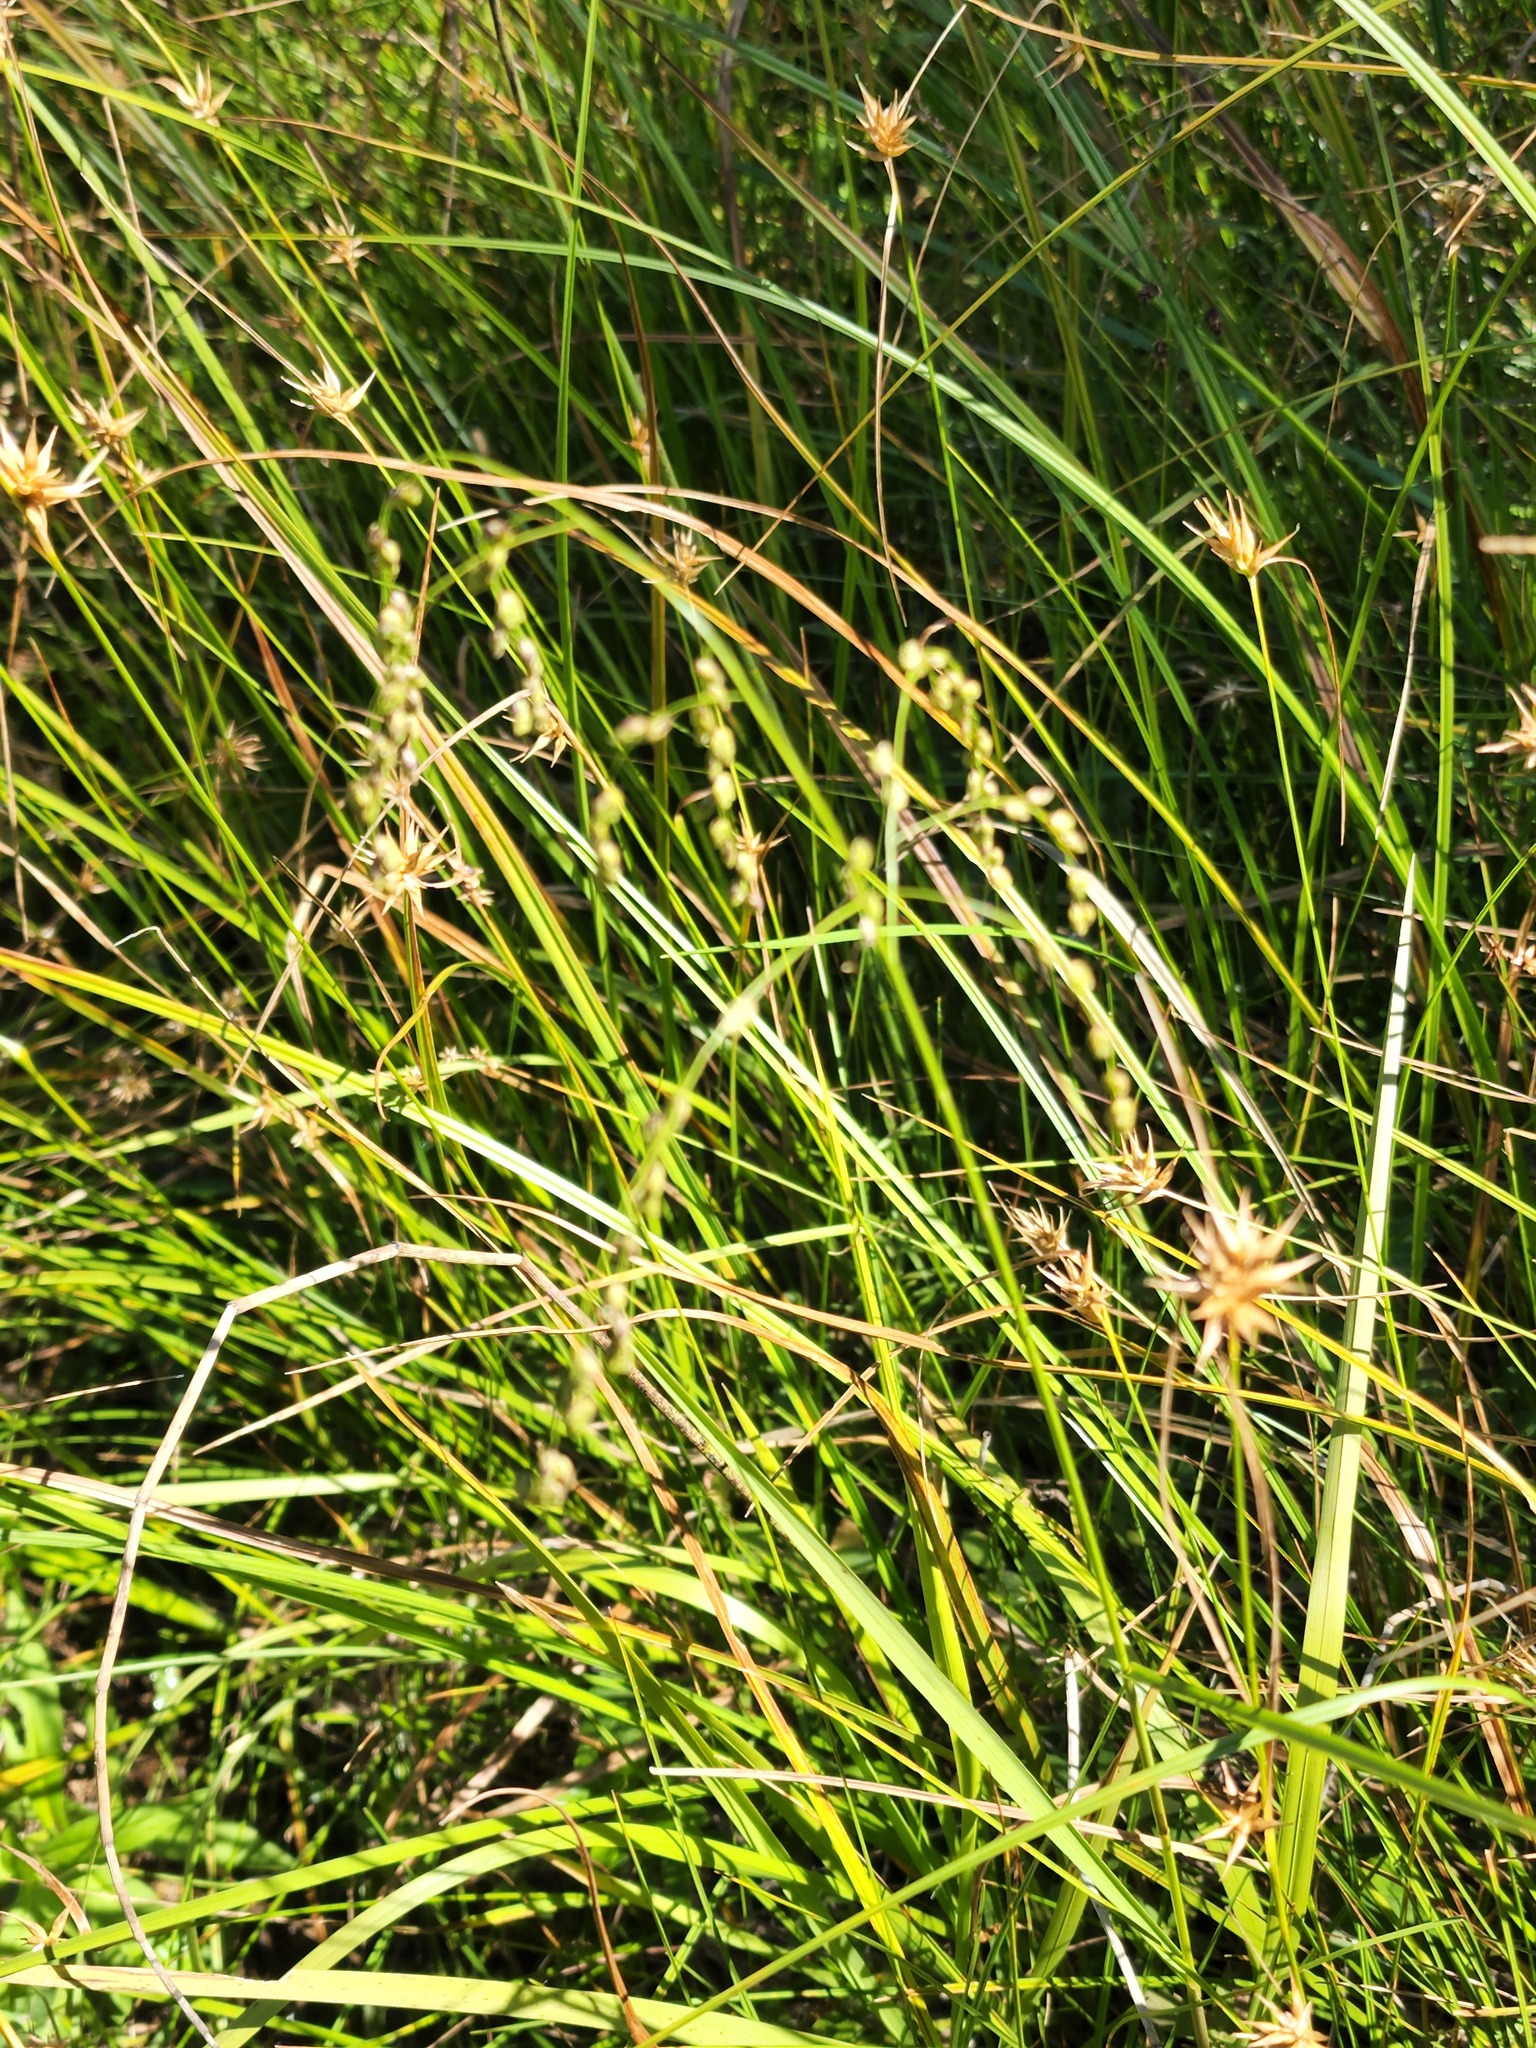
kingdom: Plantae
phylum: Tracheophyta
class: Liliopsida
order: Poales
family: Poaceae
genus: Glyceria
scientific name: Glyceria canadensis
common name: Canada mannagrass
